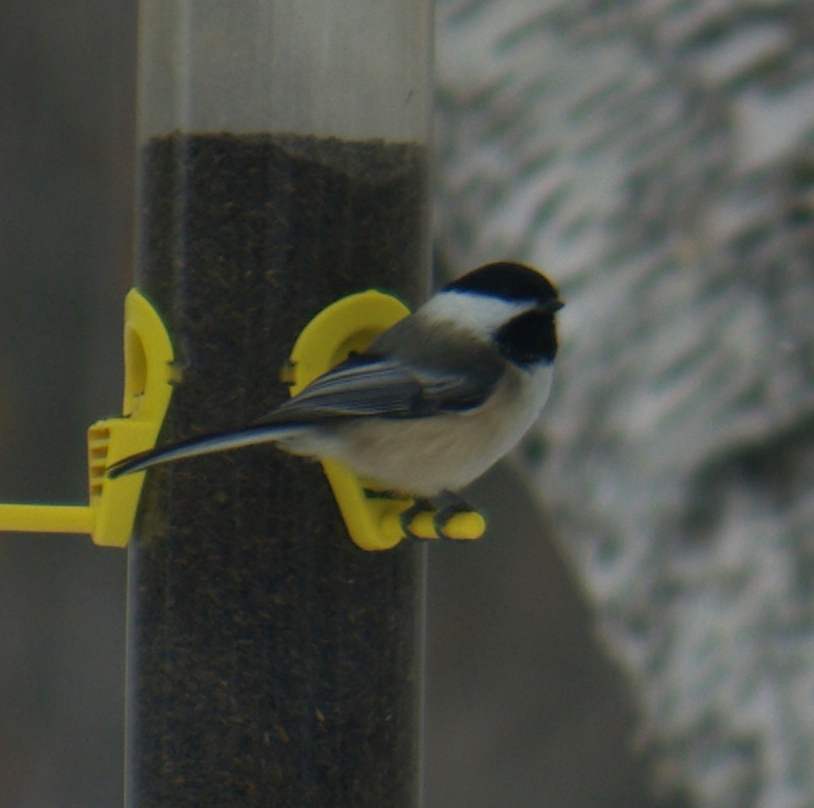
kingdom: Animalia
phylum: Chordata
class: Aves
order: Passeriformes
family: Paridae
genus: Poecile
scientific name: Poecile atricapillus
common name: Black-capped chickadee
